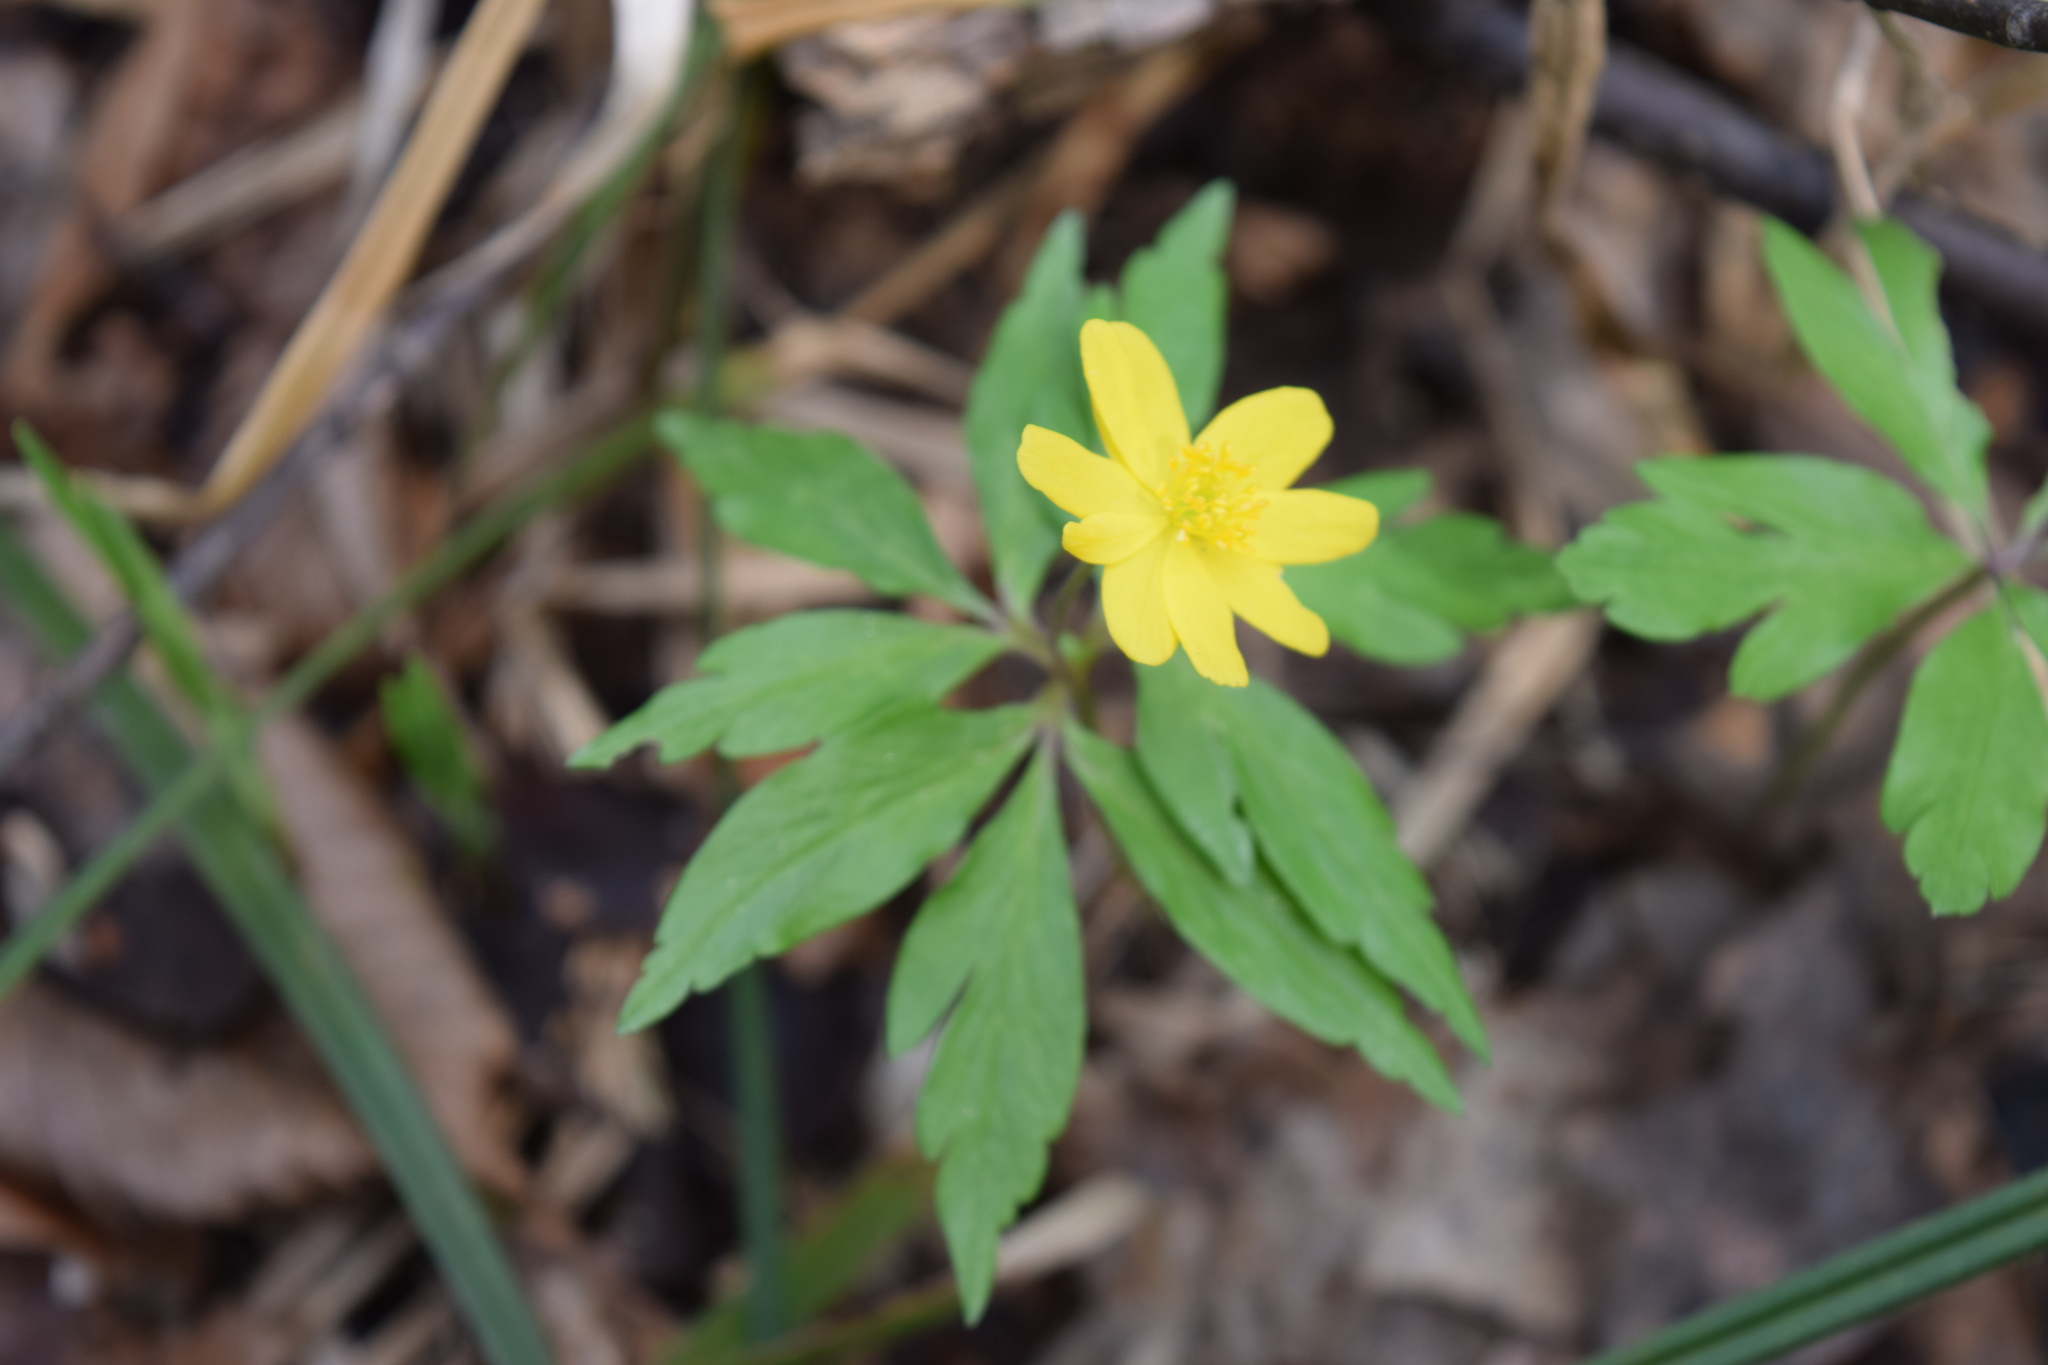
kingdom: Plantae
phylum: Tracheophyta
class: Magnoliopsida
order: Ranunculales
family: Ranunculaceae
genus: Anemone
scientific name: Anemone ranunculoides
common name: Yellow anemone
